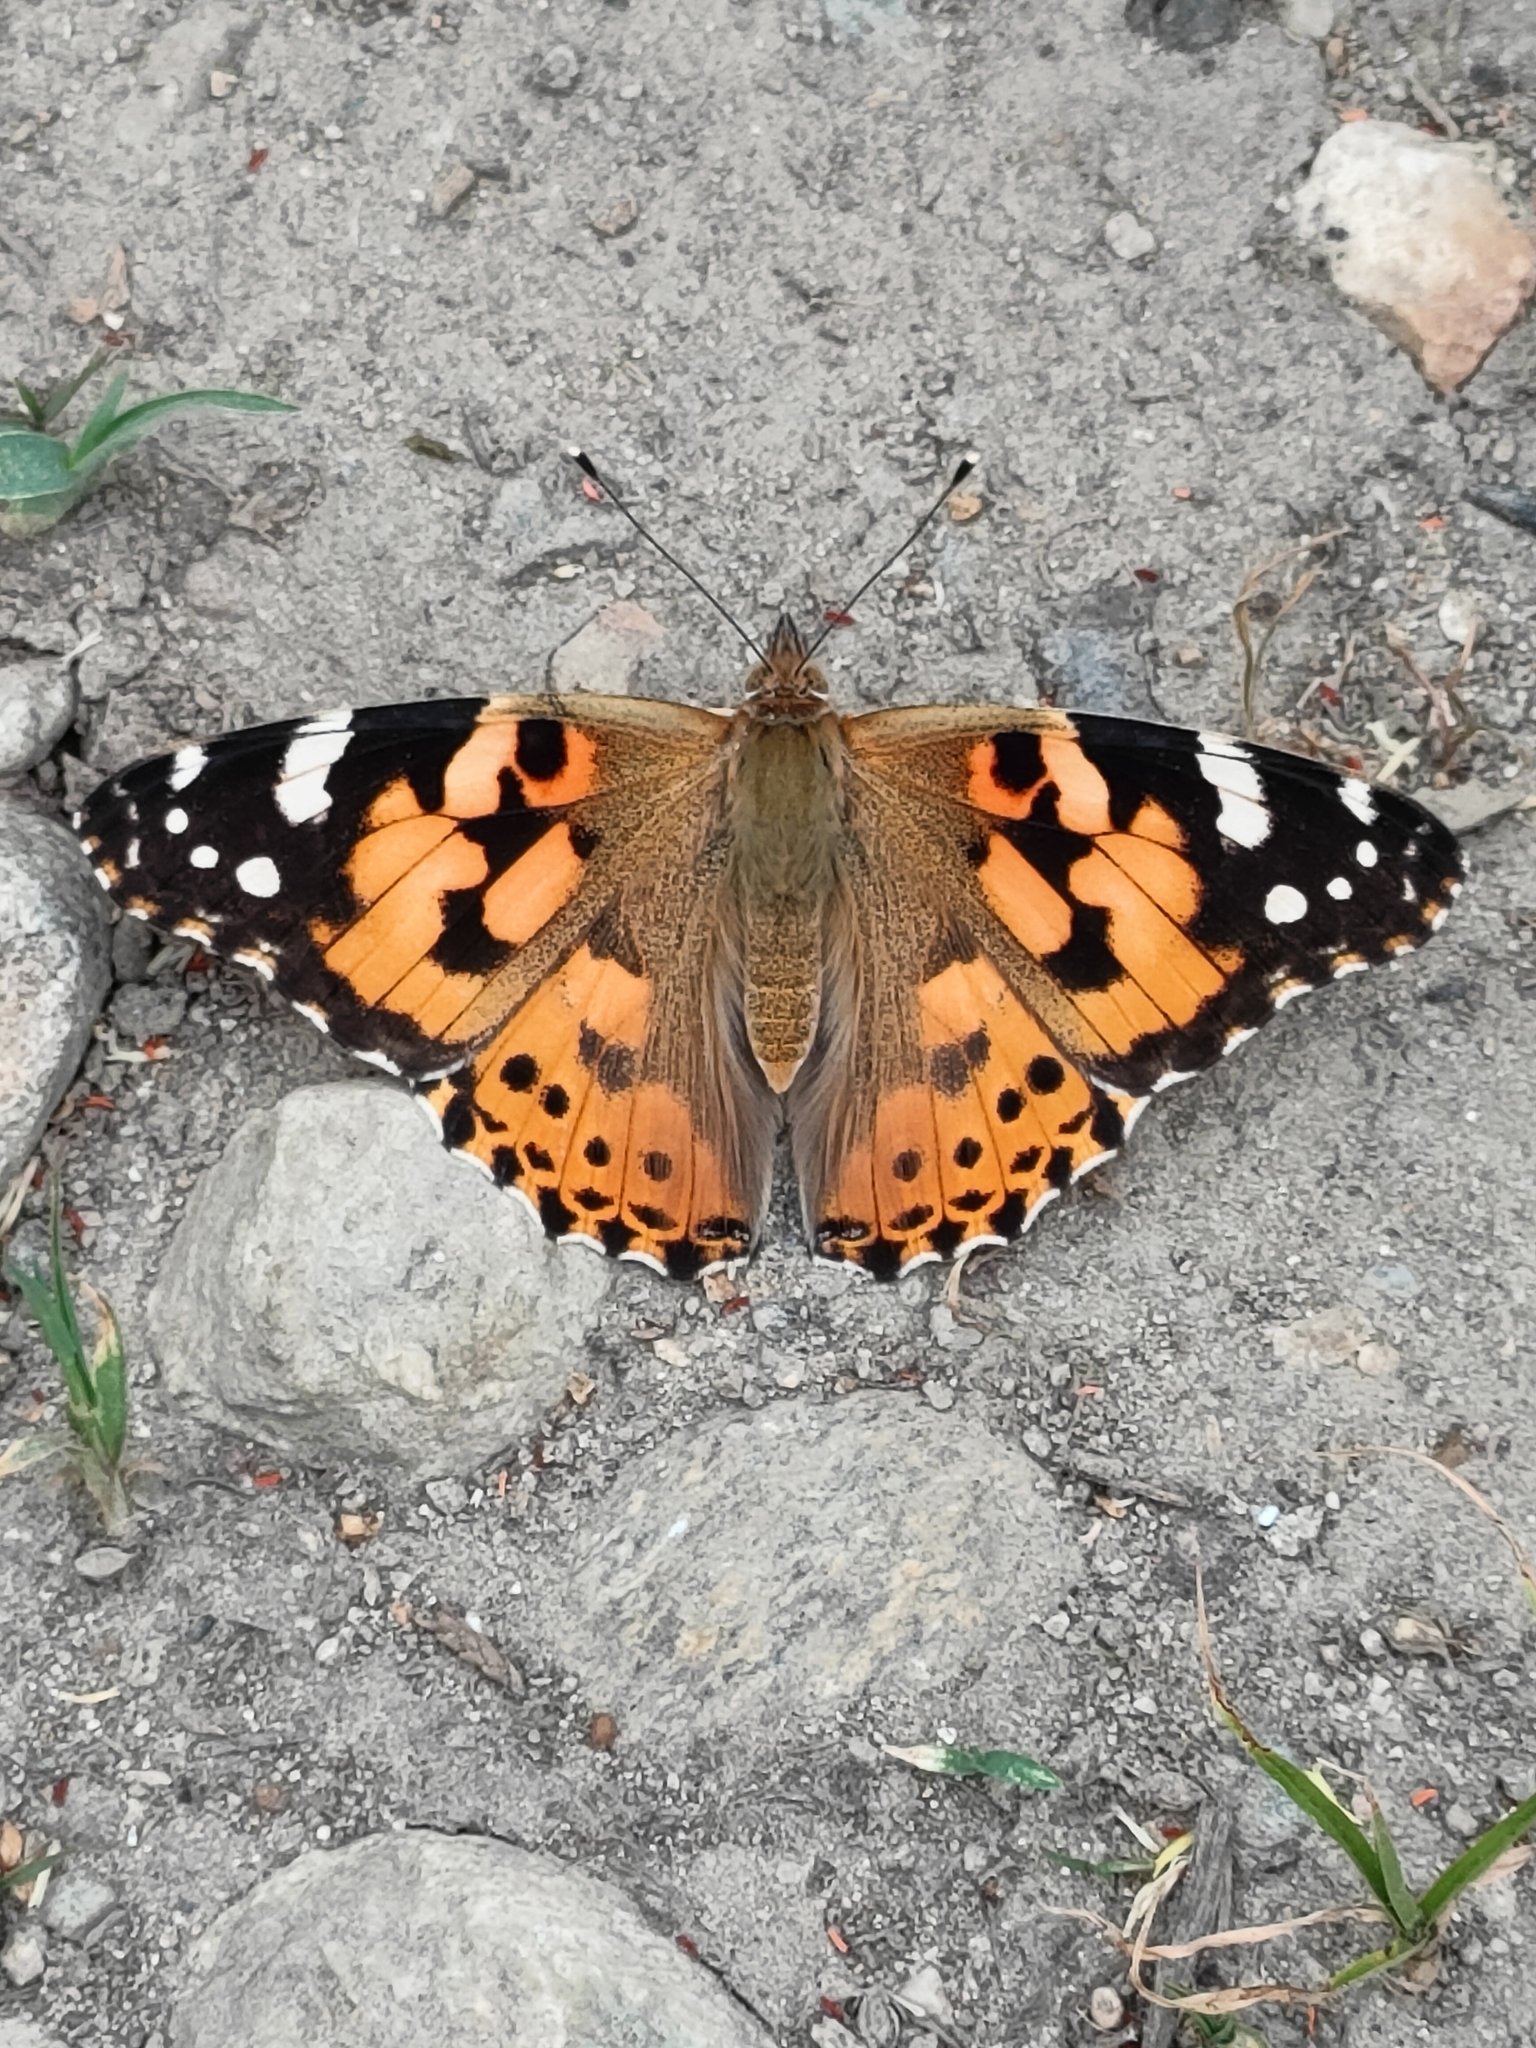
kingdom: Animalia
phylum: Arthropoda
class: Insecta
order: Lepidoptera
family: Nymphalidae
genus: Vanessa
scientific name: Vanessa cardui
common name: Painted lady
